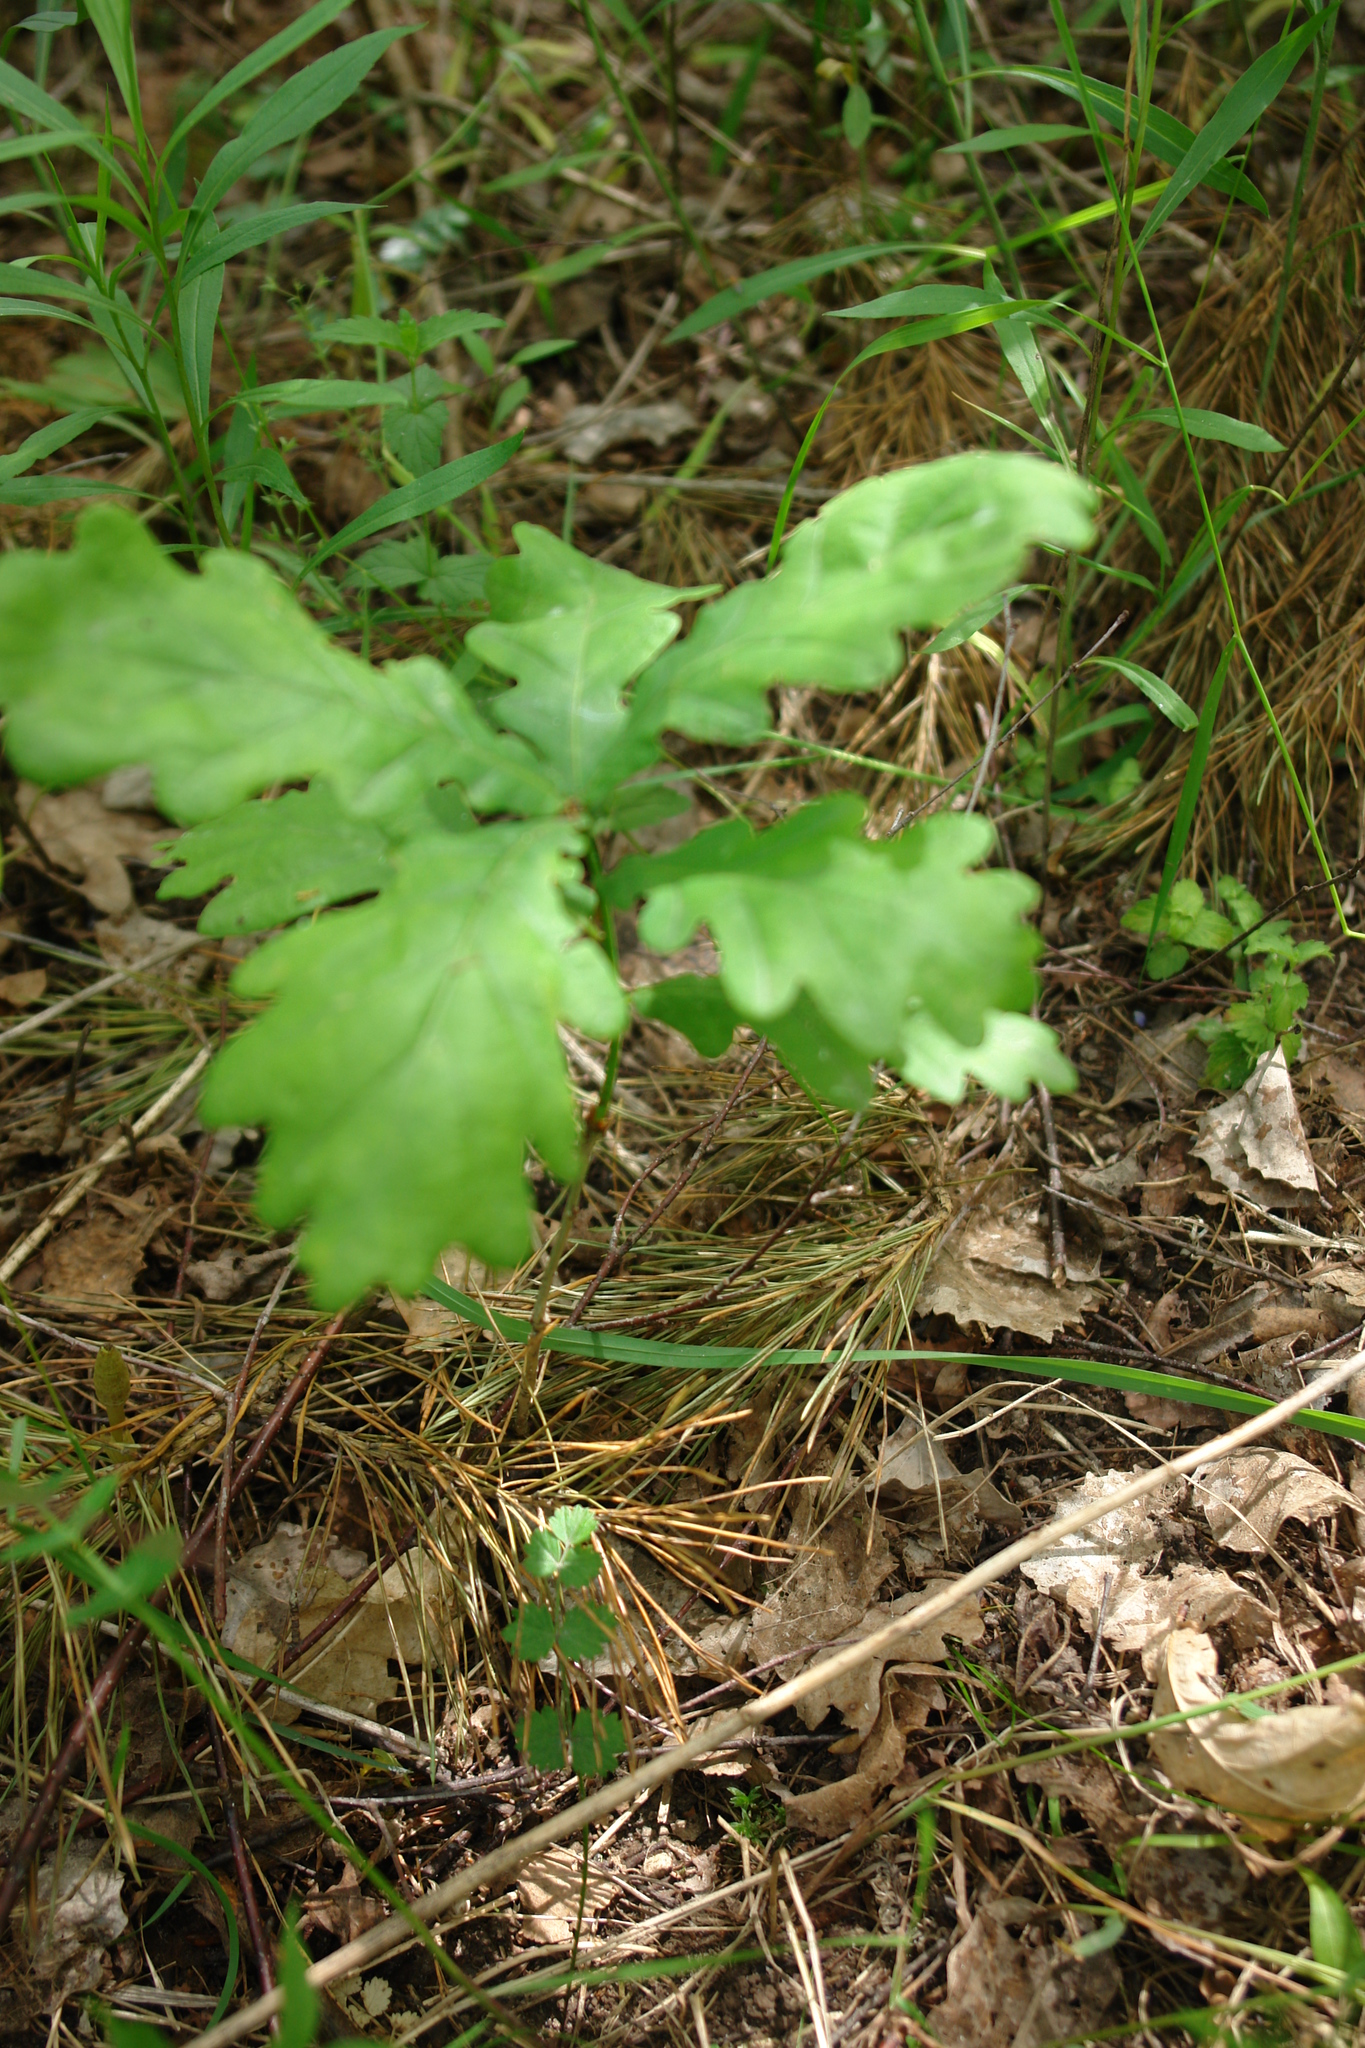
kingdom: Plantae
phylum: Tracheophyta
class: Magnoliopsida
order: Fagales
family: Fagaceae
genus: Quercus
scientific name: Quercus petraea
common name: Sessile oak
